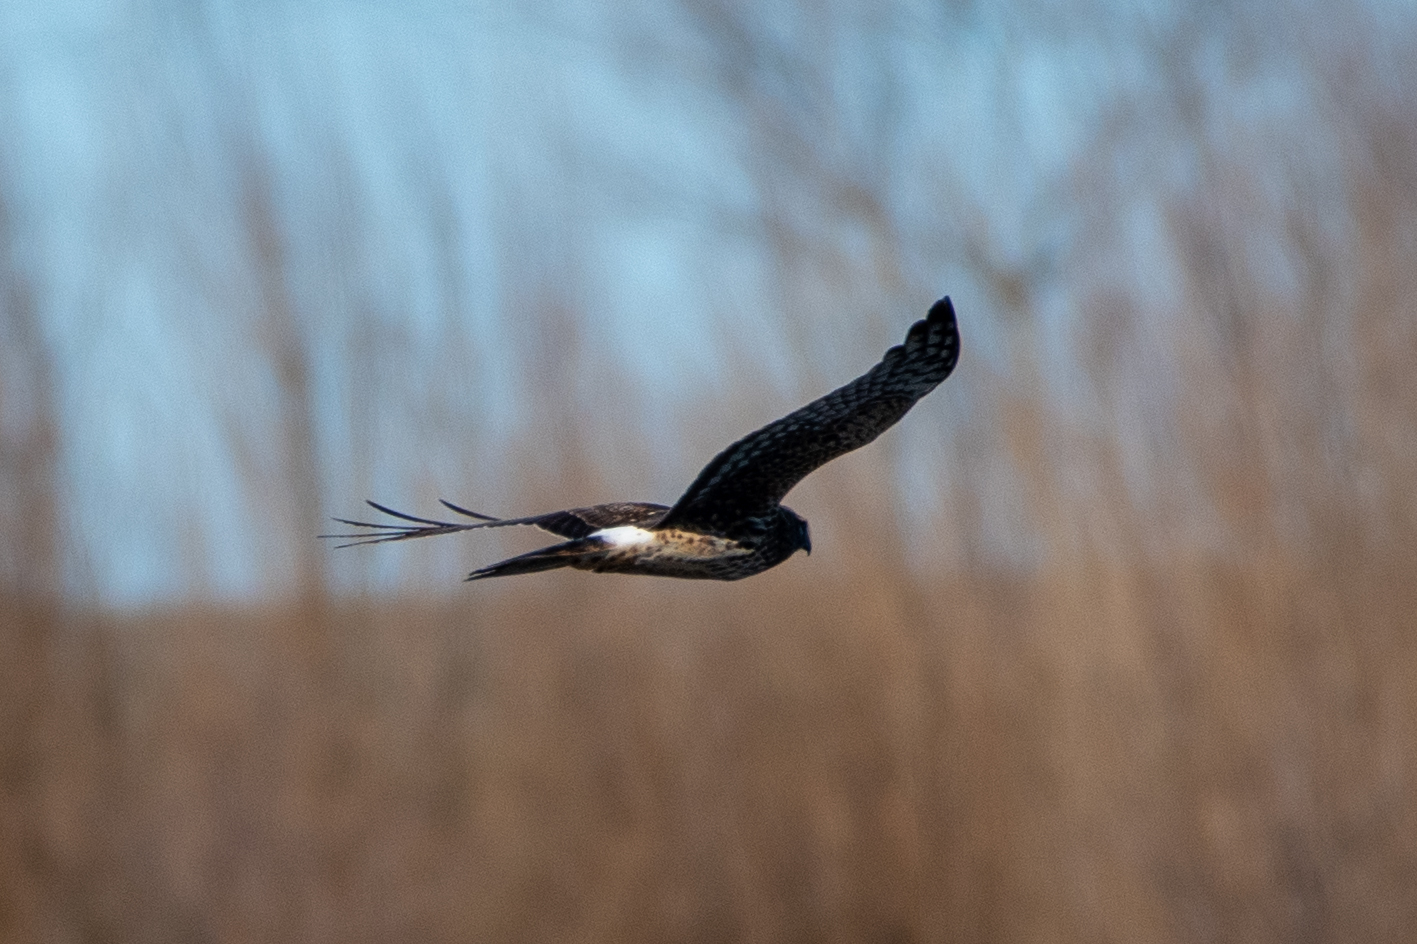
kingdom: Animalia
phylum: Chordata
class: Aves
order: Accipitriformes
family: Accipitridae
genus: Circus
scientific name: Circus cyaneus
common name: Hen harrier
